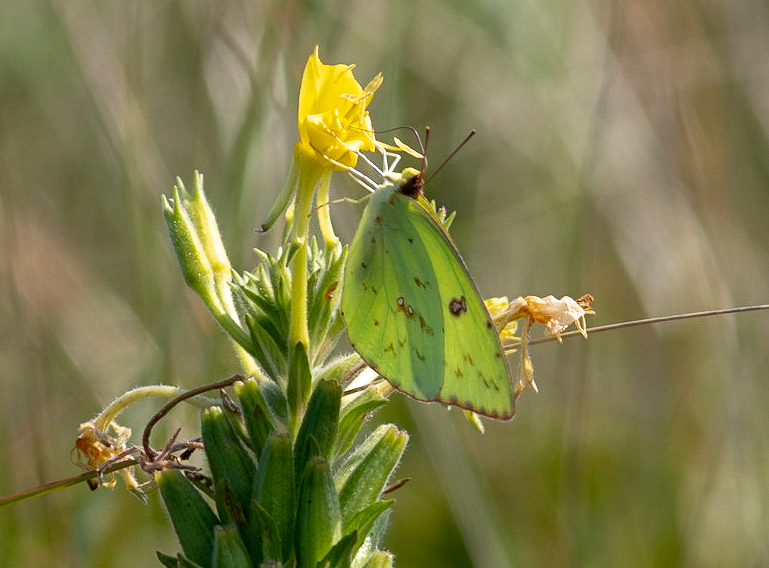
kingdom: Animalia
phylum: Arthropoda
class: Insecta
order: Lepidoptera
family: Pieridae
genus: Phoebis
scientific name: Phoebis sennae
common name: Cloudless sulphur
